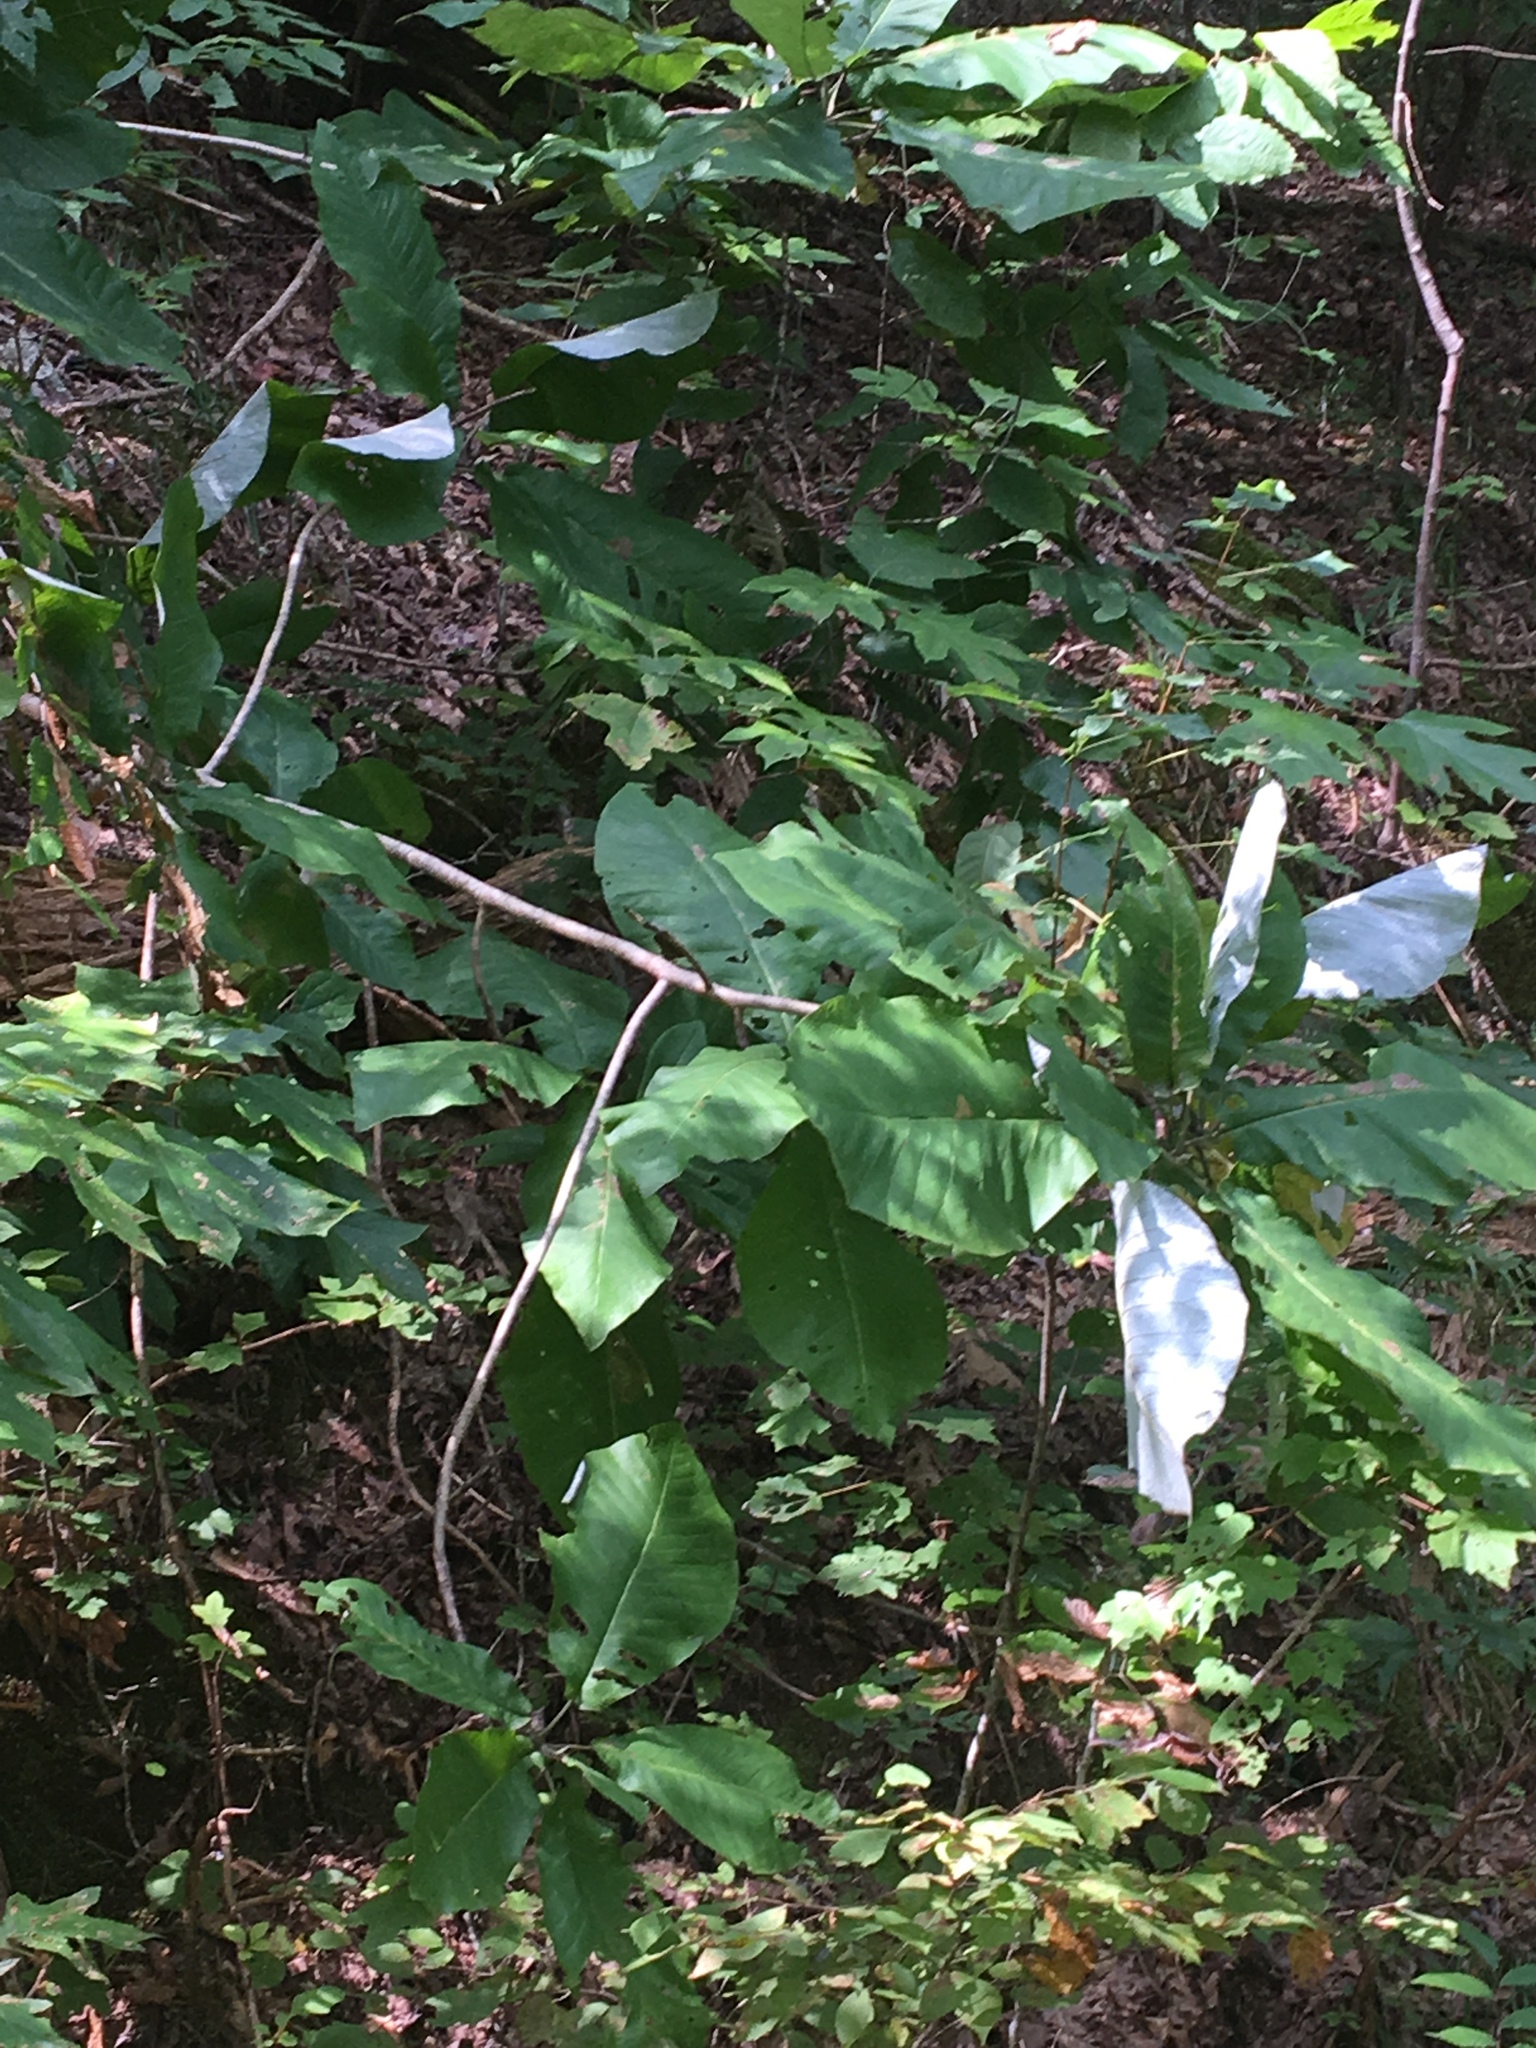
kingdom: Plantae
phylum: Tracheophyta
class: Magnoliopsida
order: Magnoliales
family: Magnoliaceae
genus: Magnolia
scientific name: Magnolia macrophylla
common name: Big-leaf magnolia
